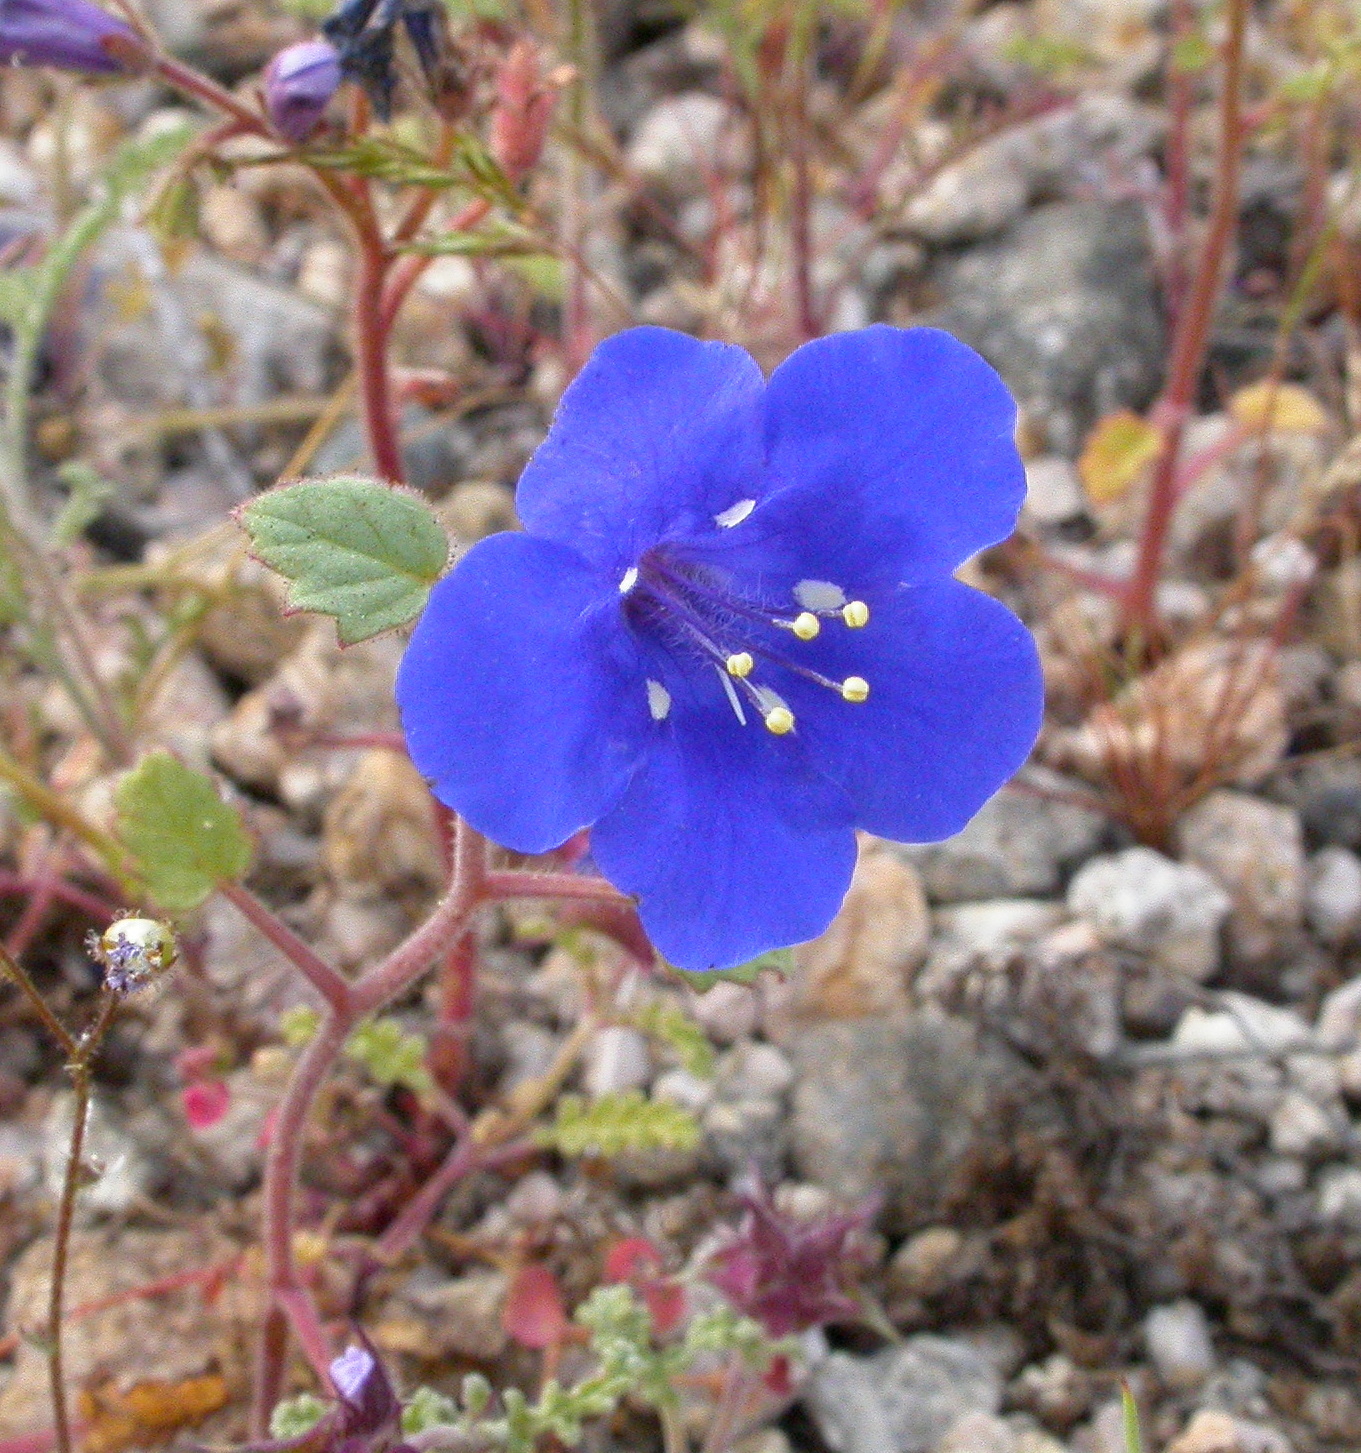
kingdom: Plantae
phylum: Tracheophyta
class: Magnoliopsida
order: Boraginales
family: Hydrophyllaceae
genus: Phacelia
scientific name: Phacelia campanularia
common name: California bluebell
